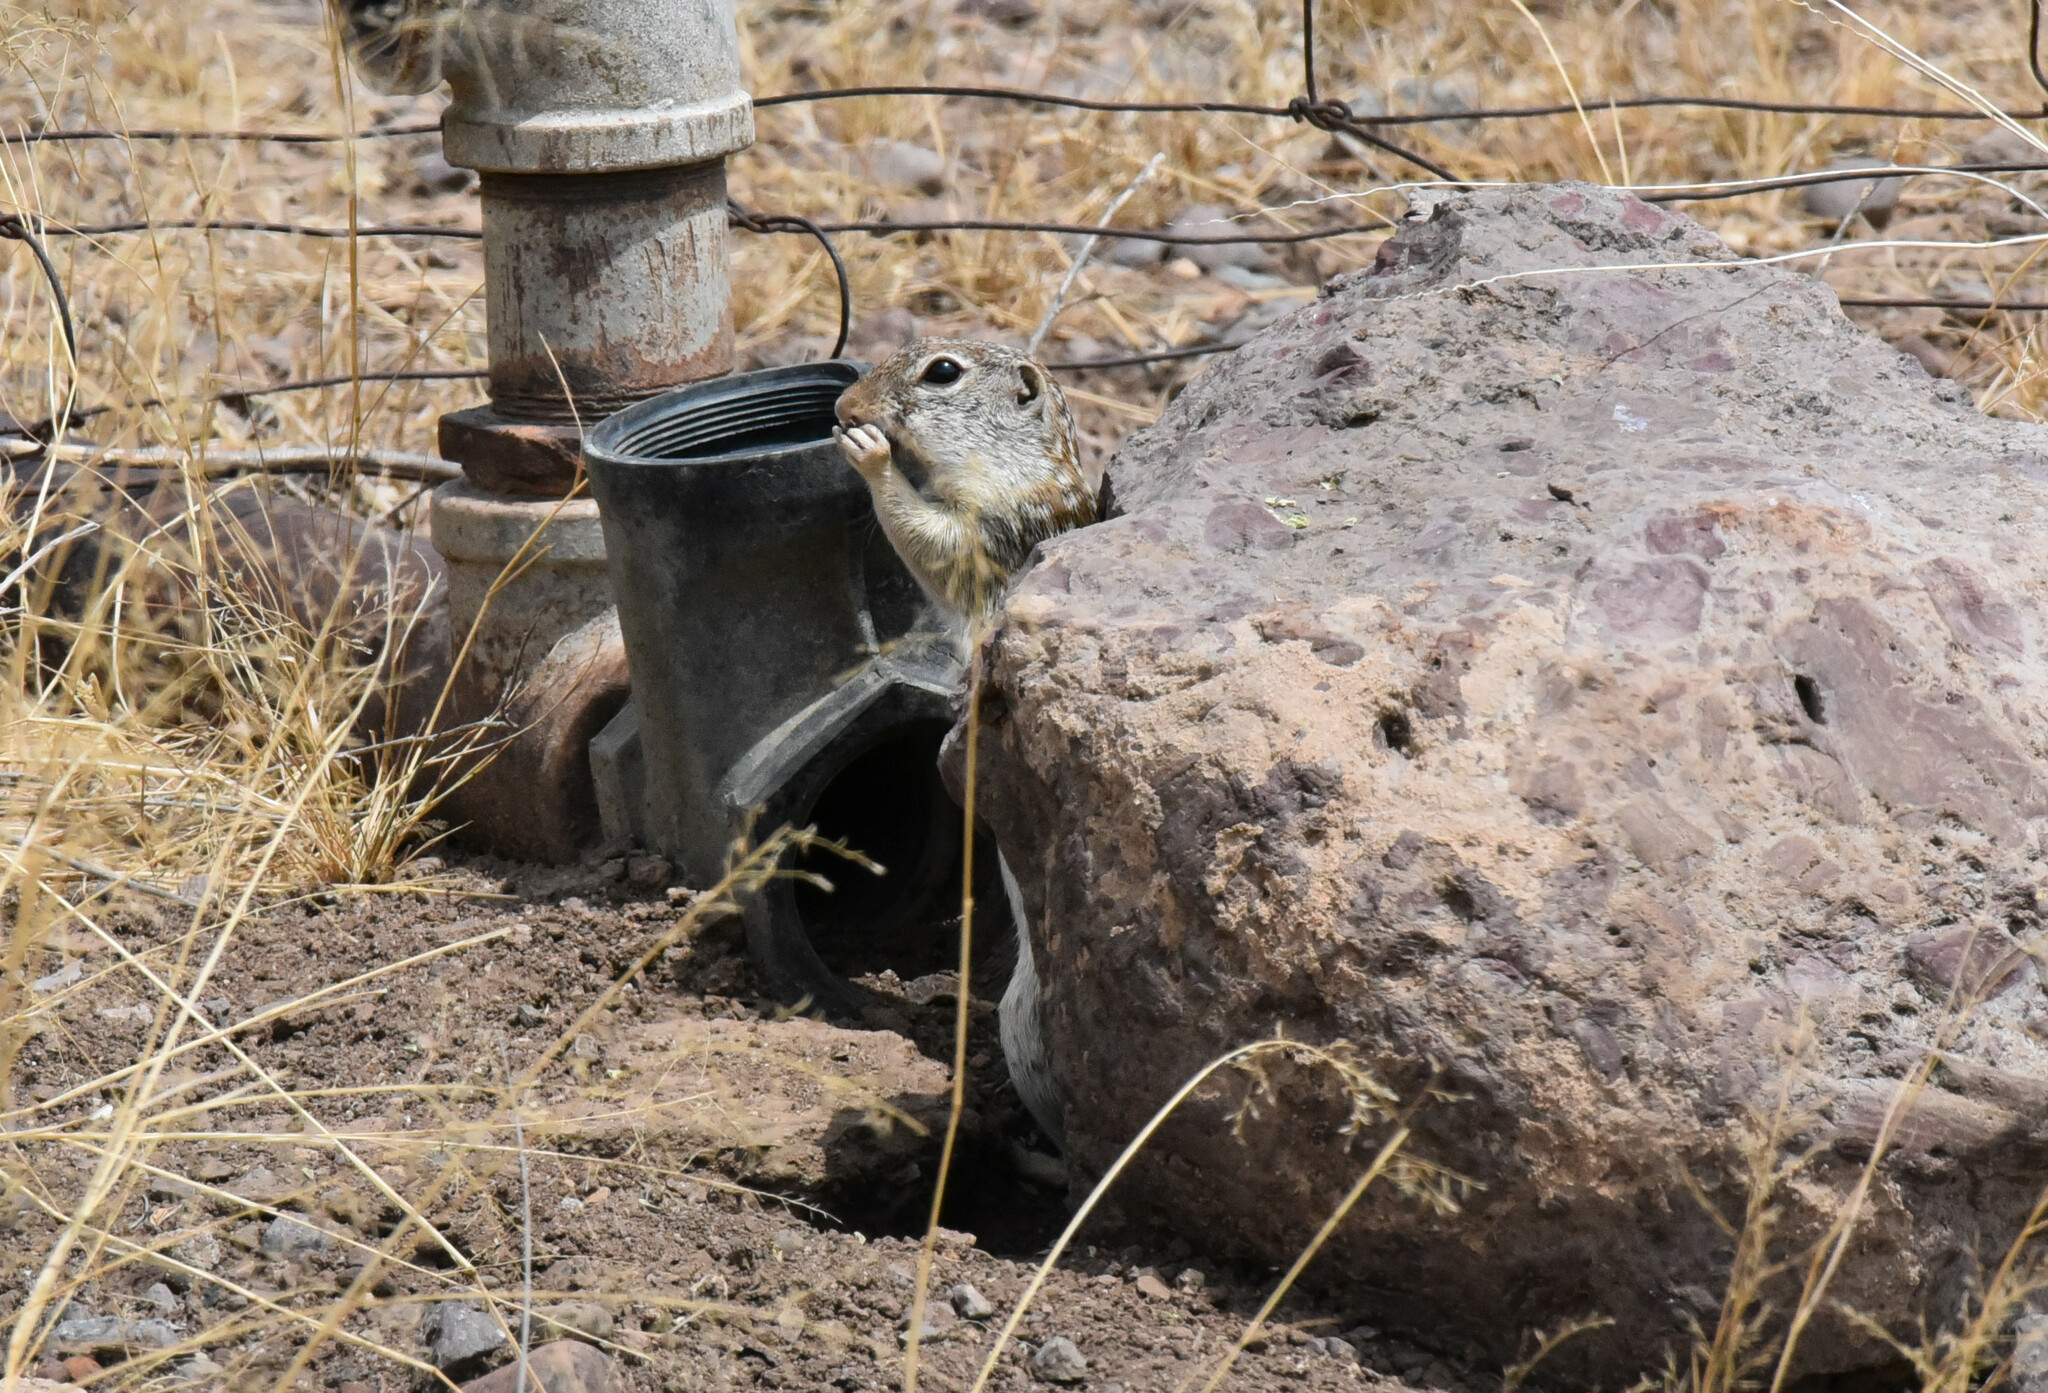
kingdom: Animalia
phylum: Chordata
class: Mammalia
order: Rodentia
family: Sciuridae
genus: Ictidomys
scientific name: Ictidomys parvidens
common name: Rio grande ground squirrel
